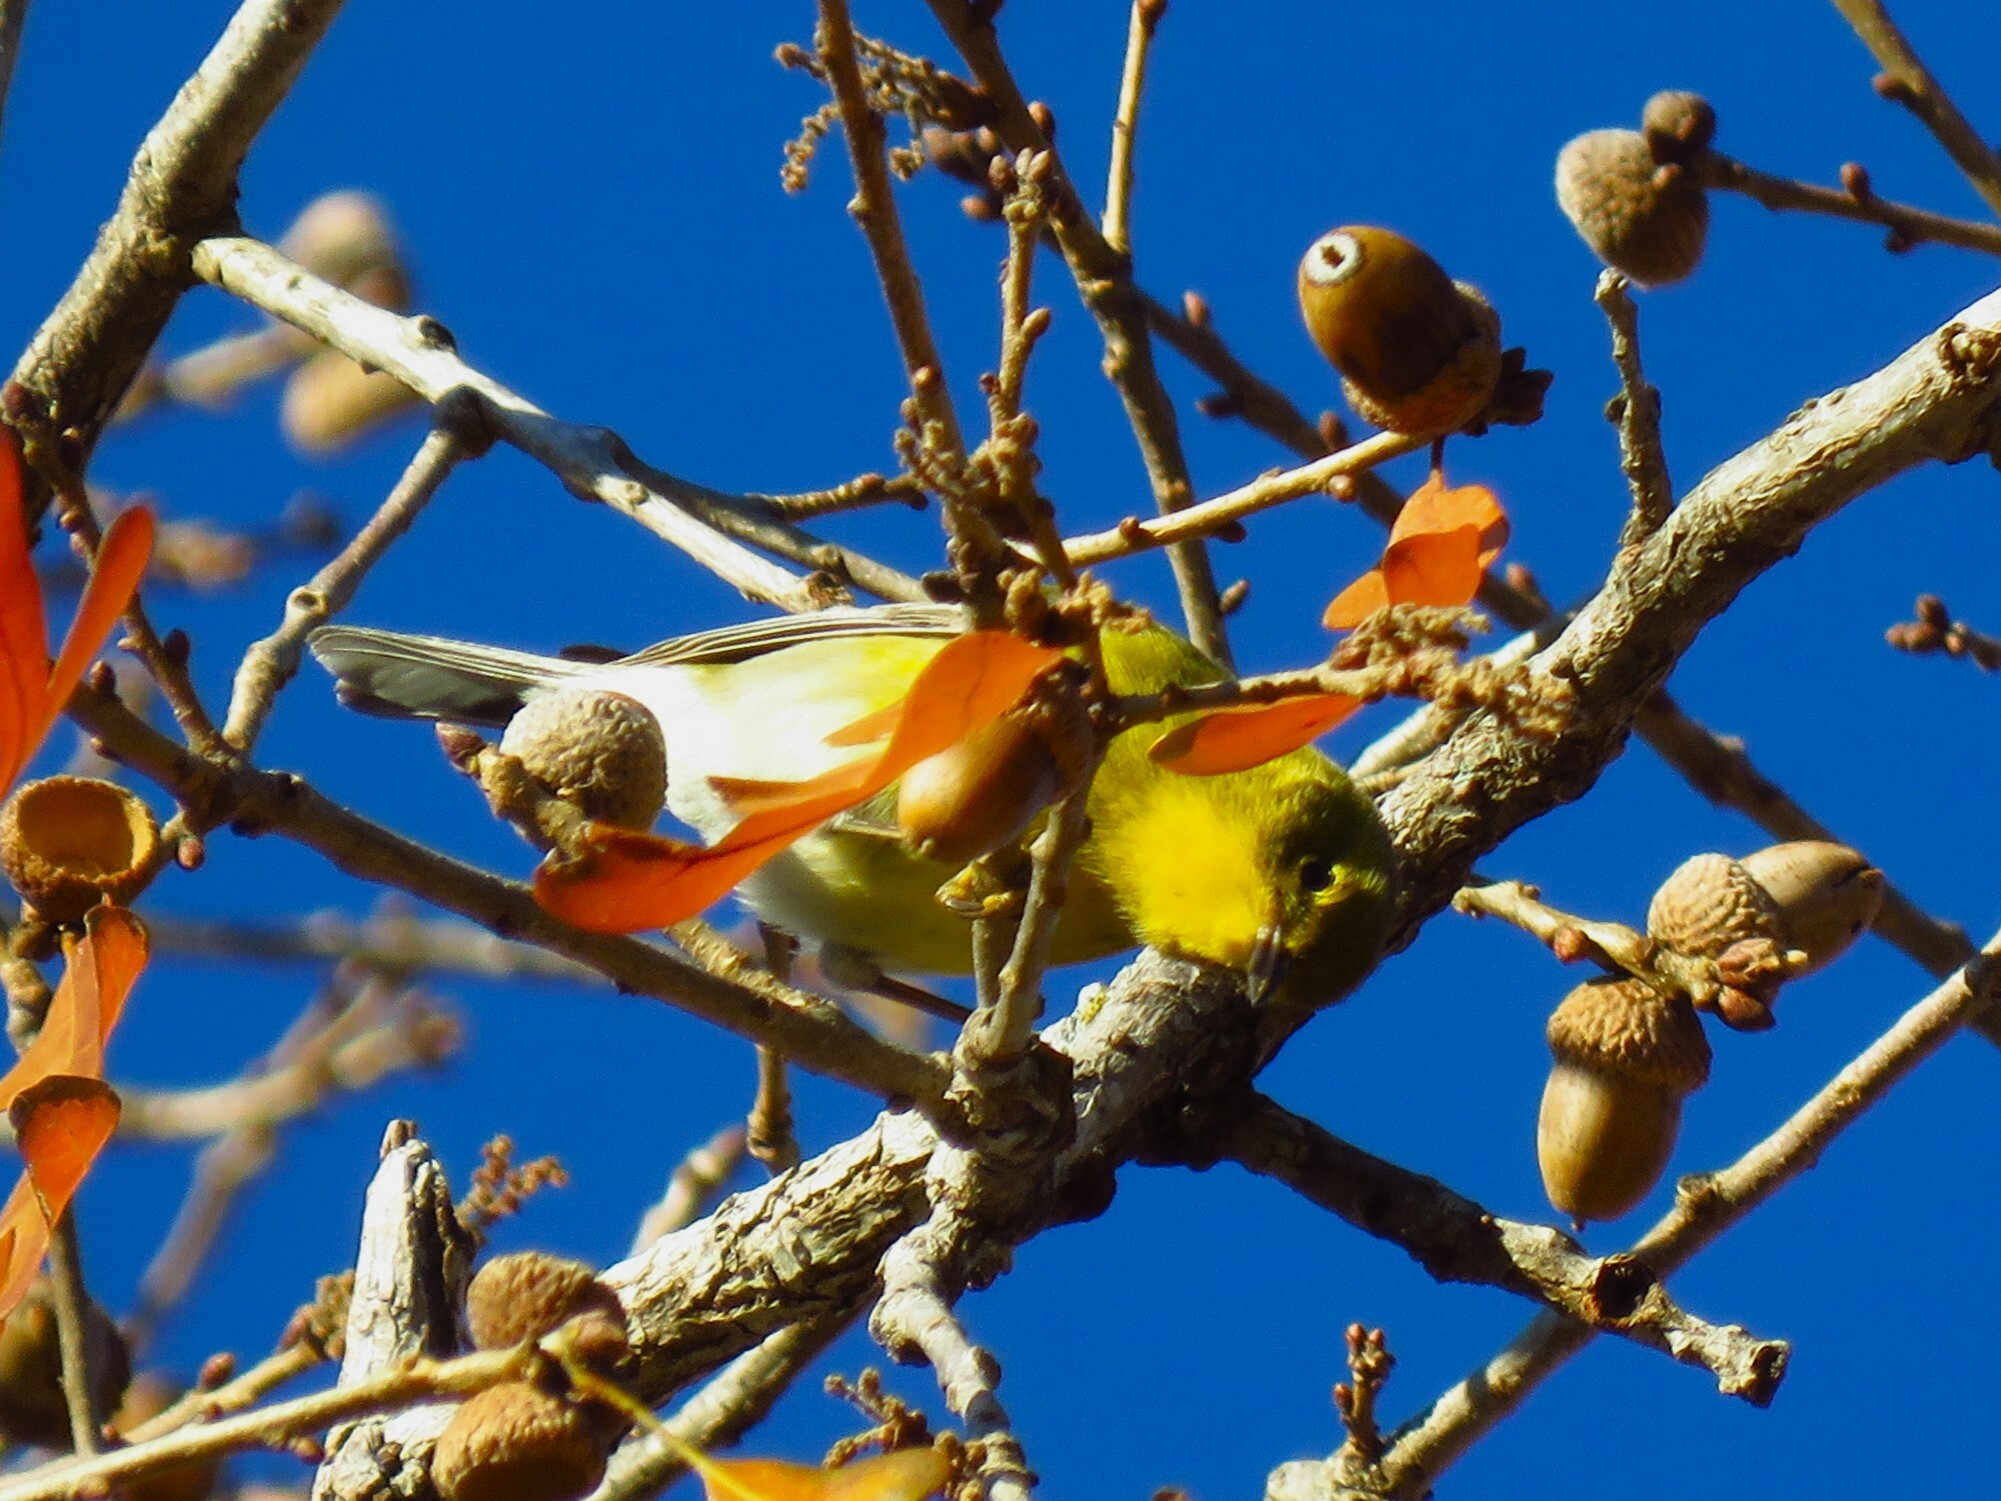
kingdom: Animalia
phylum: Chordata
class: Aves
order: Passeriformes
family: Parulidae
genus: Setophaga
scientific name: Setophaga pinus
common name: Pine warbler
